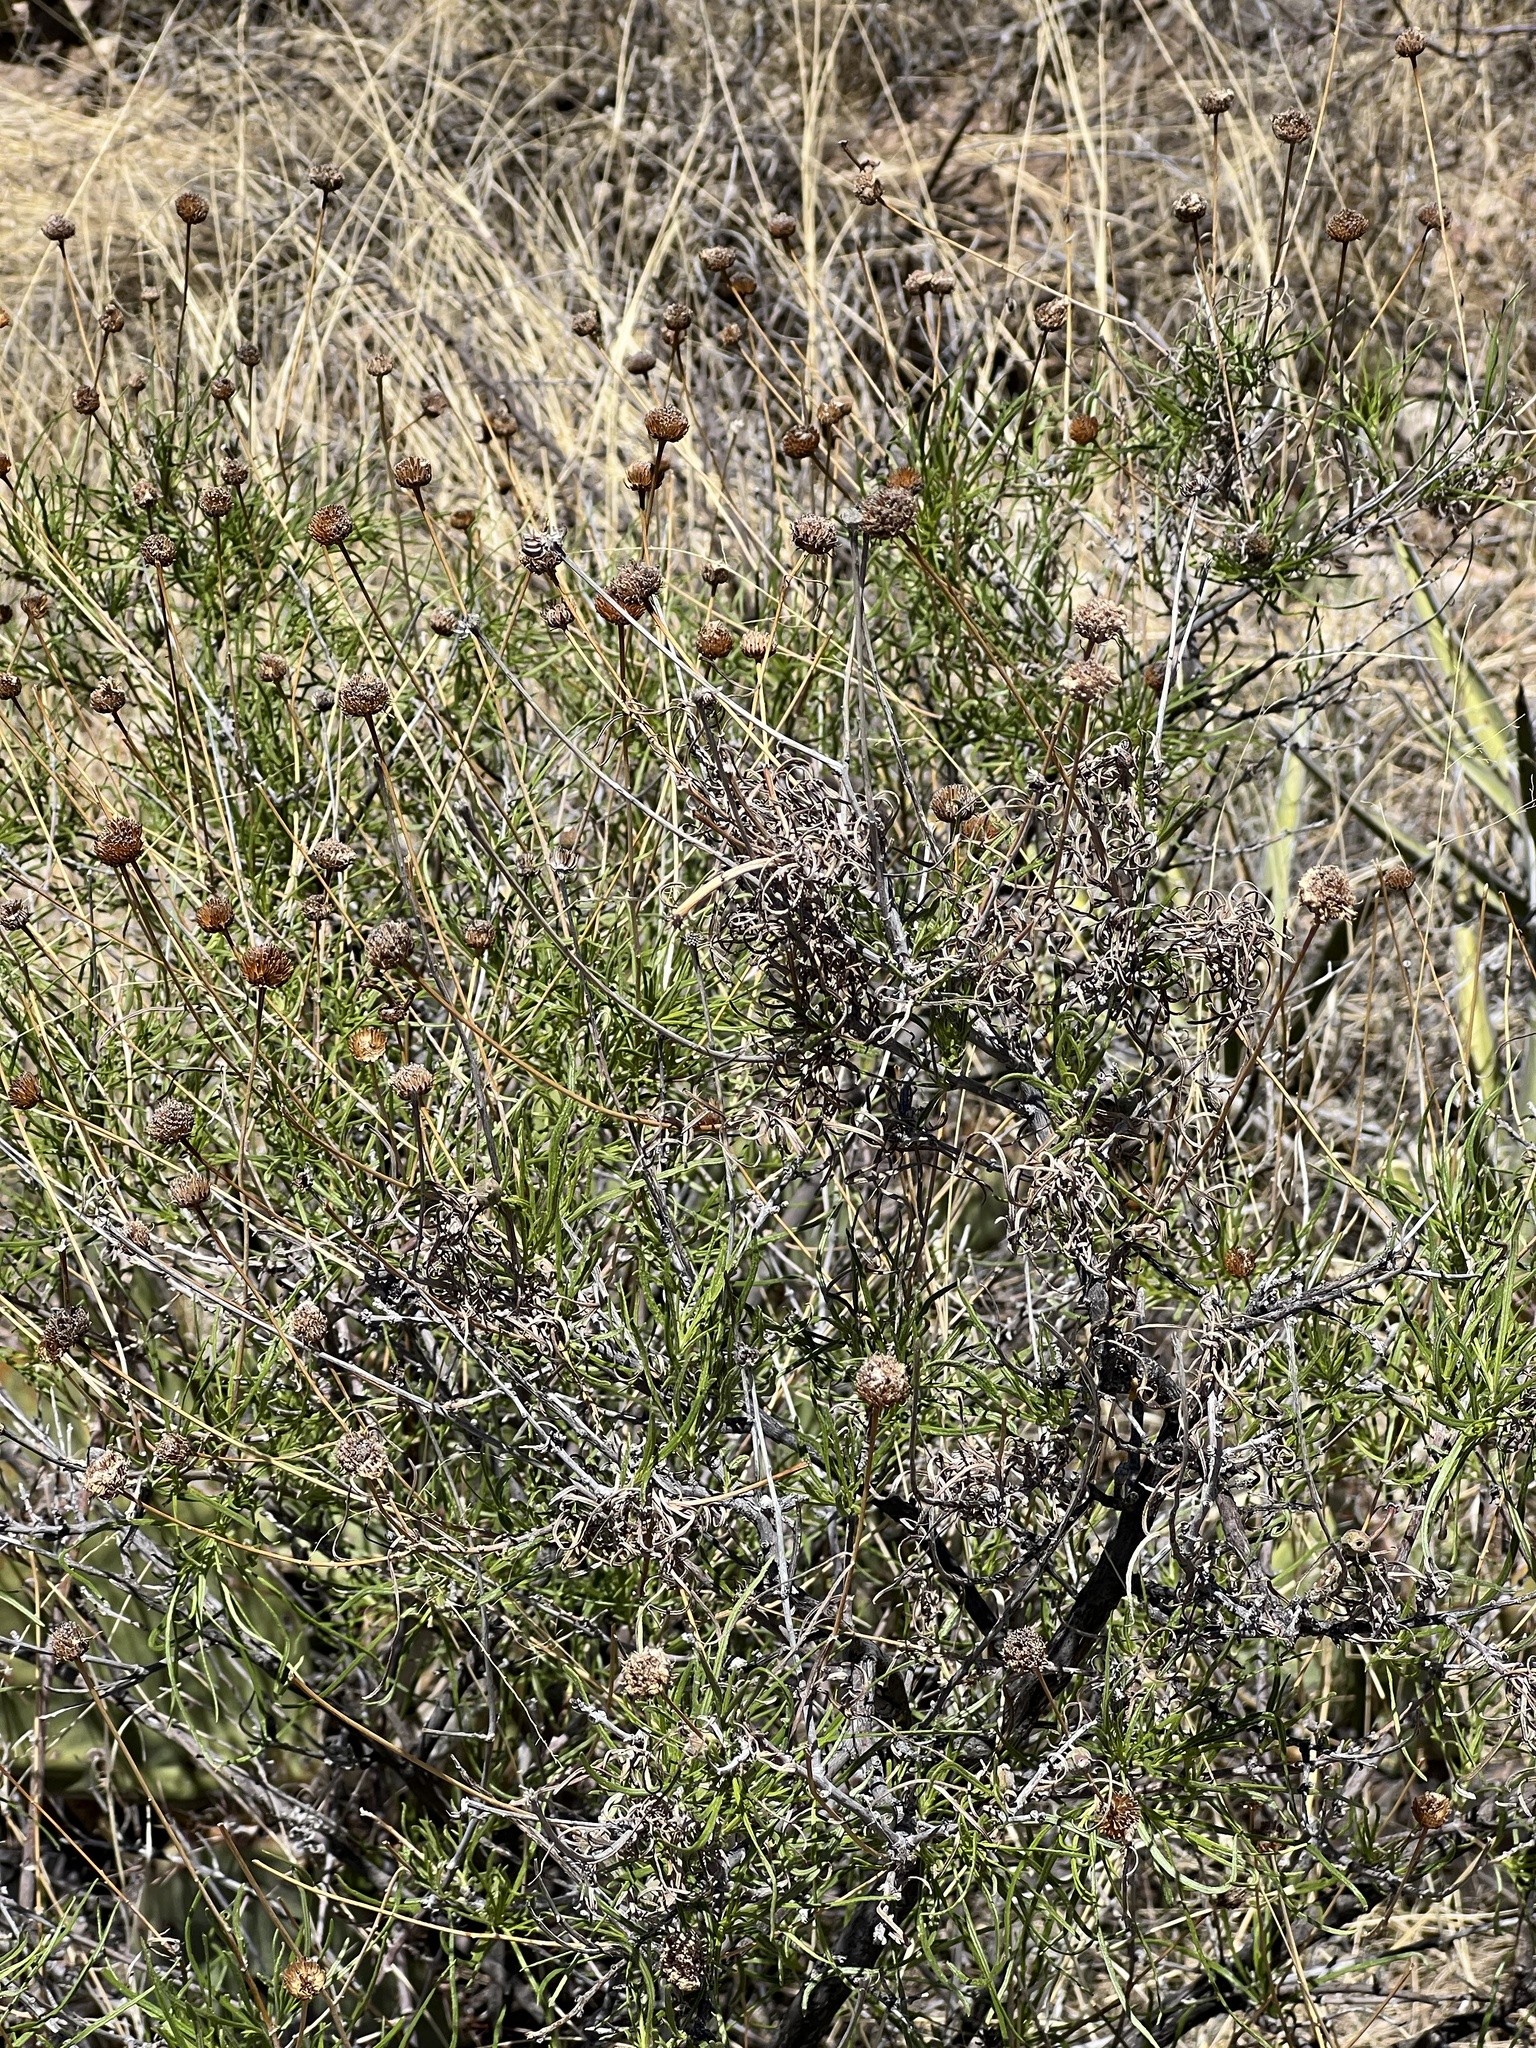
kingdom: Plantae
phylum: Tracheophyta
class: Magnoliopsida
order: Asterales
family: Asteraceae
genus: Sidneya
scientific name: Sidneya tenuifolia
